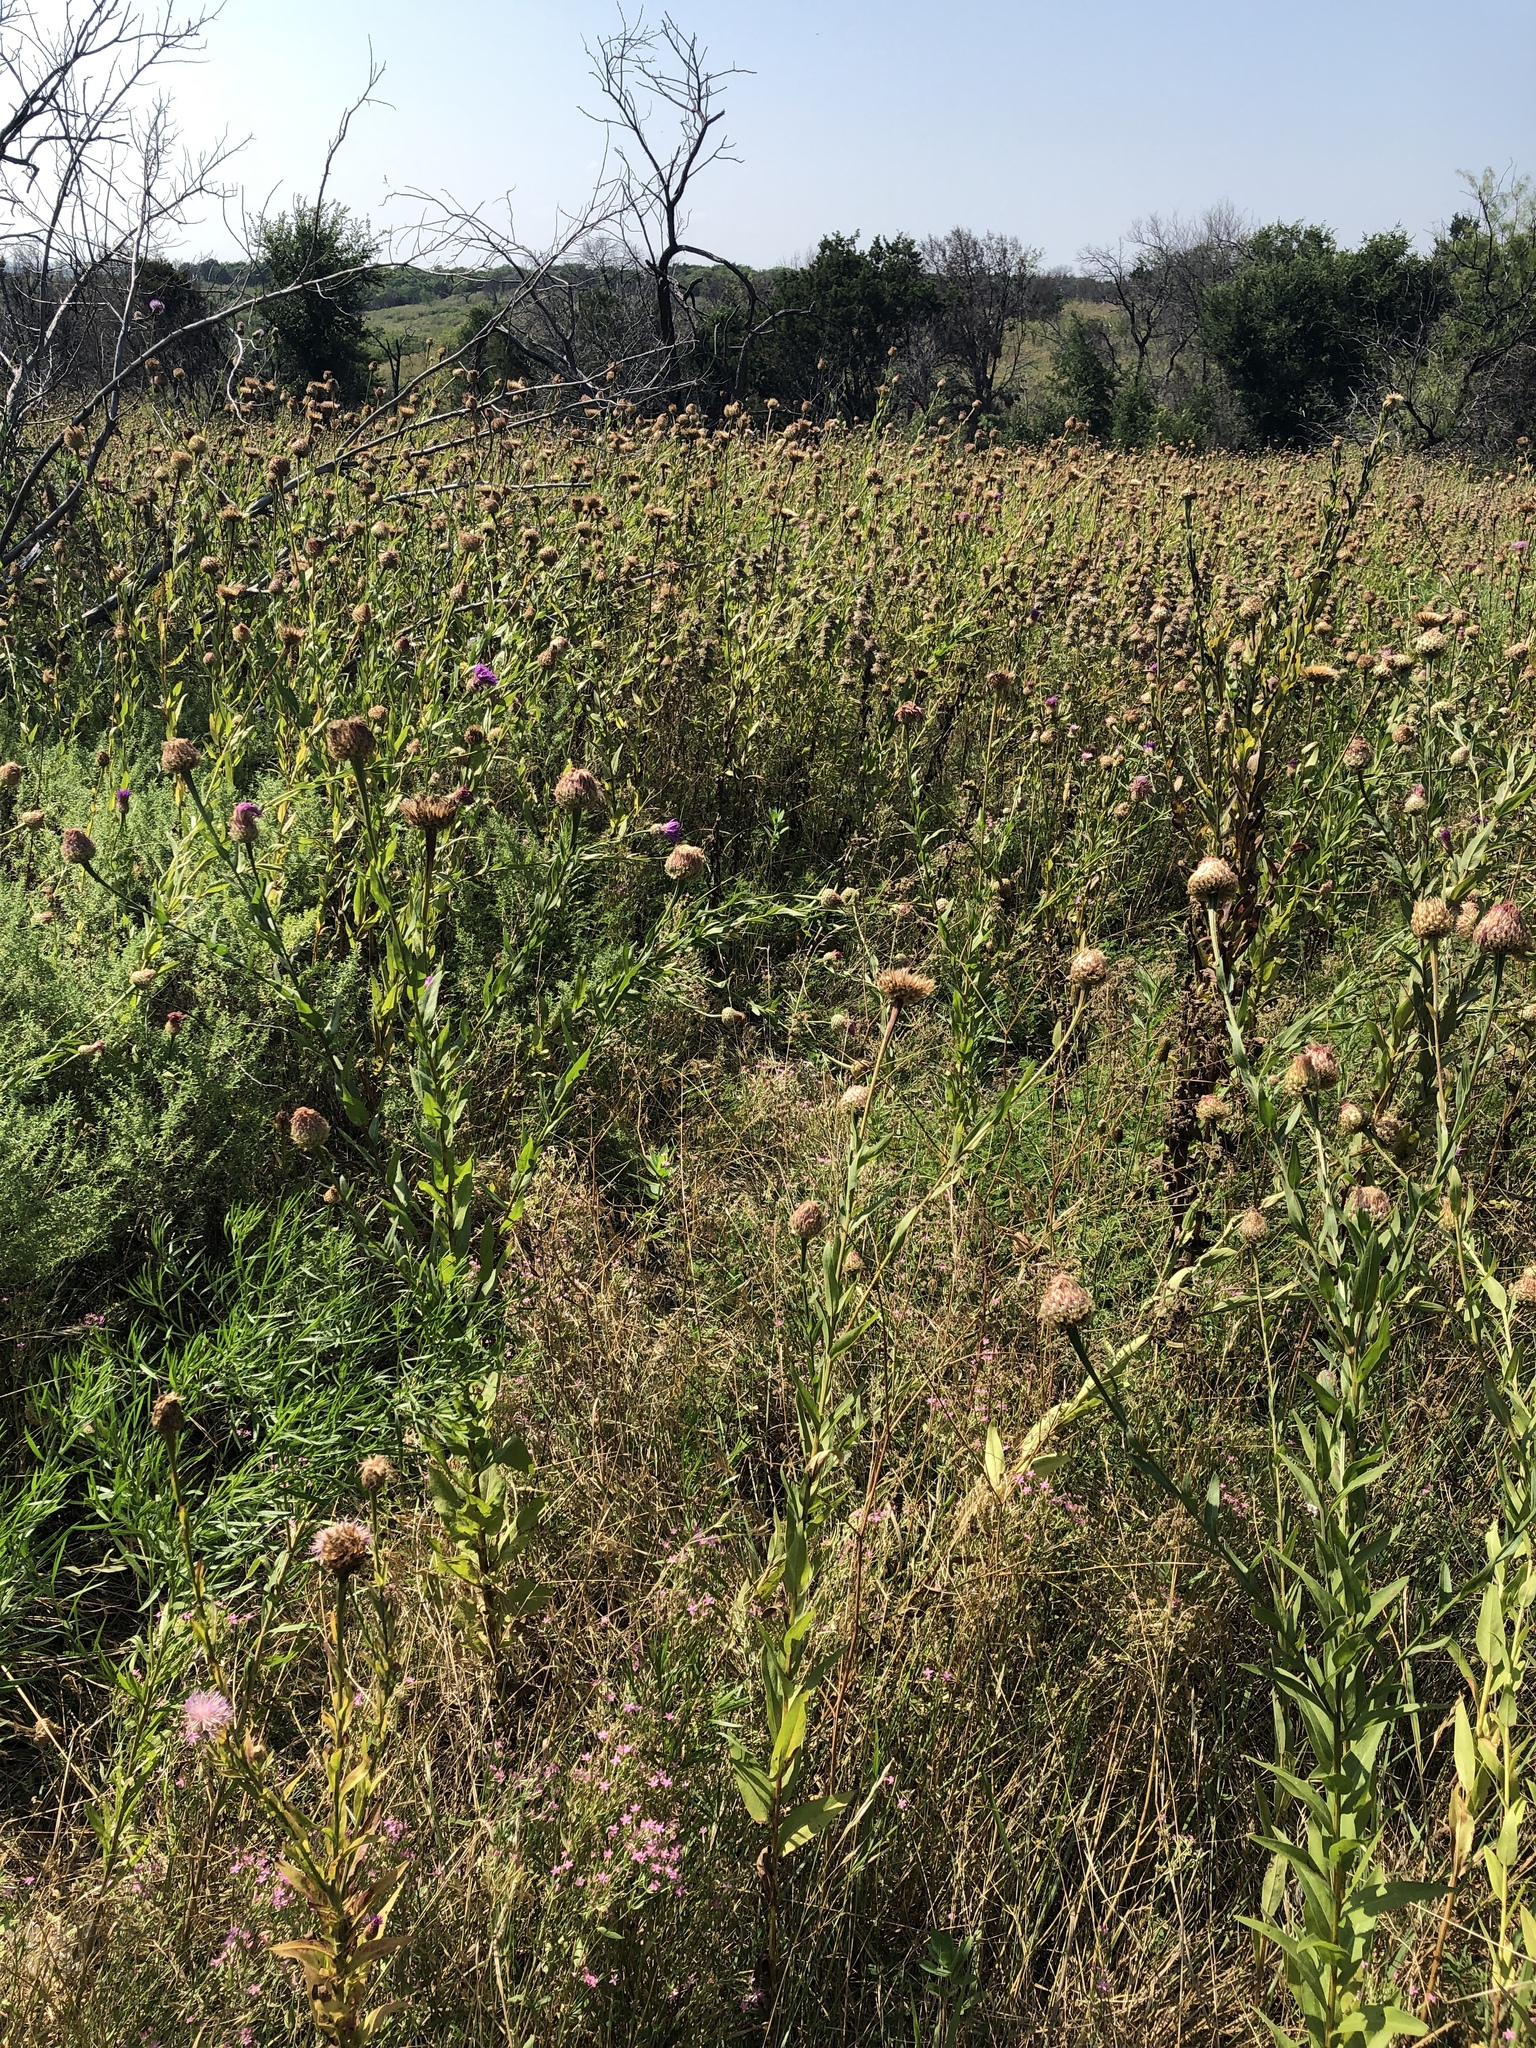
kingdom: Plantae
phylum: Tracheophyta
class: Magnoliopsida
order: Asterales
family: Asteraceae
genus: Plectocephalus
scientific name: Plectocephalus americanus
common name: American basket-flower
